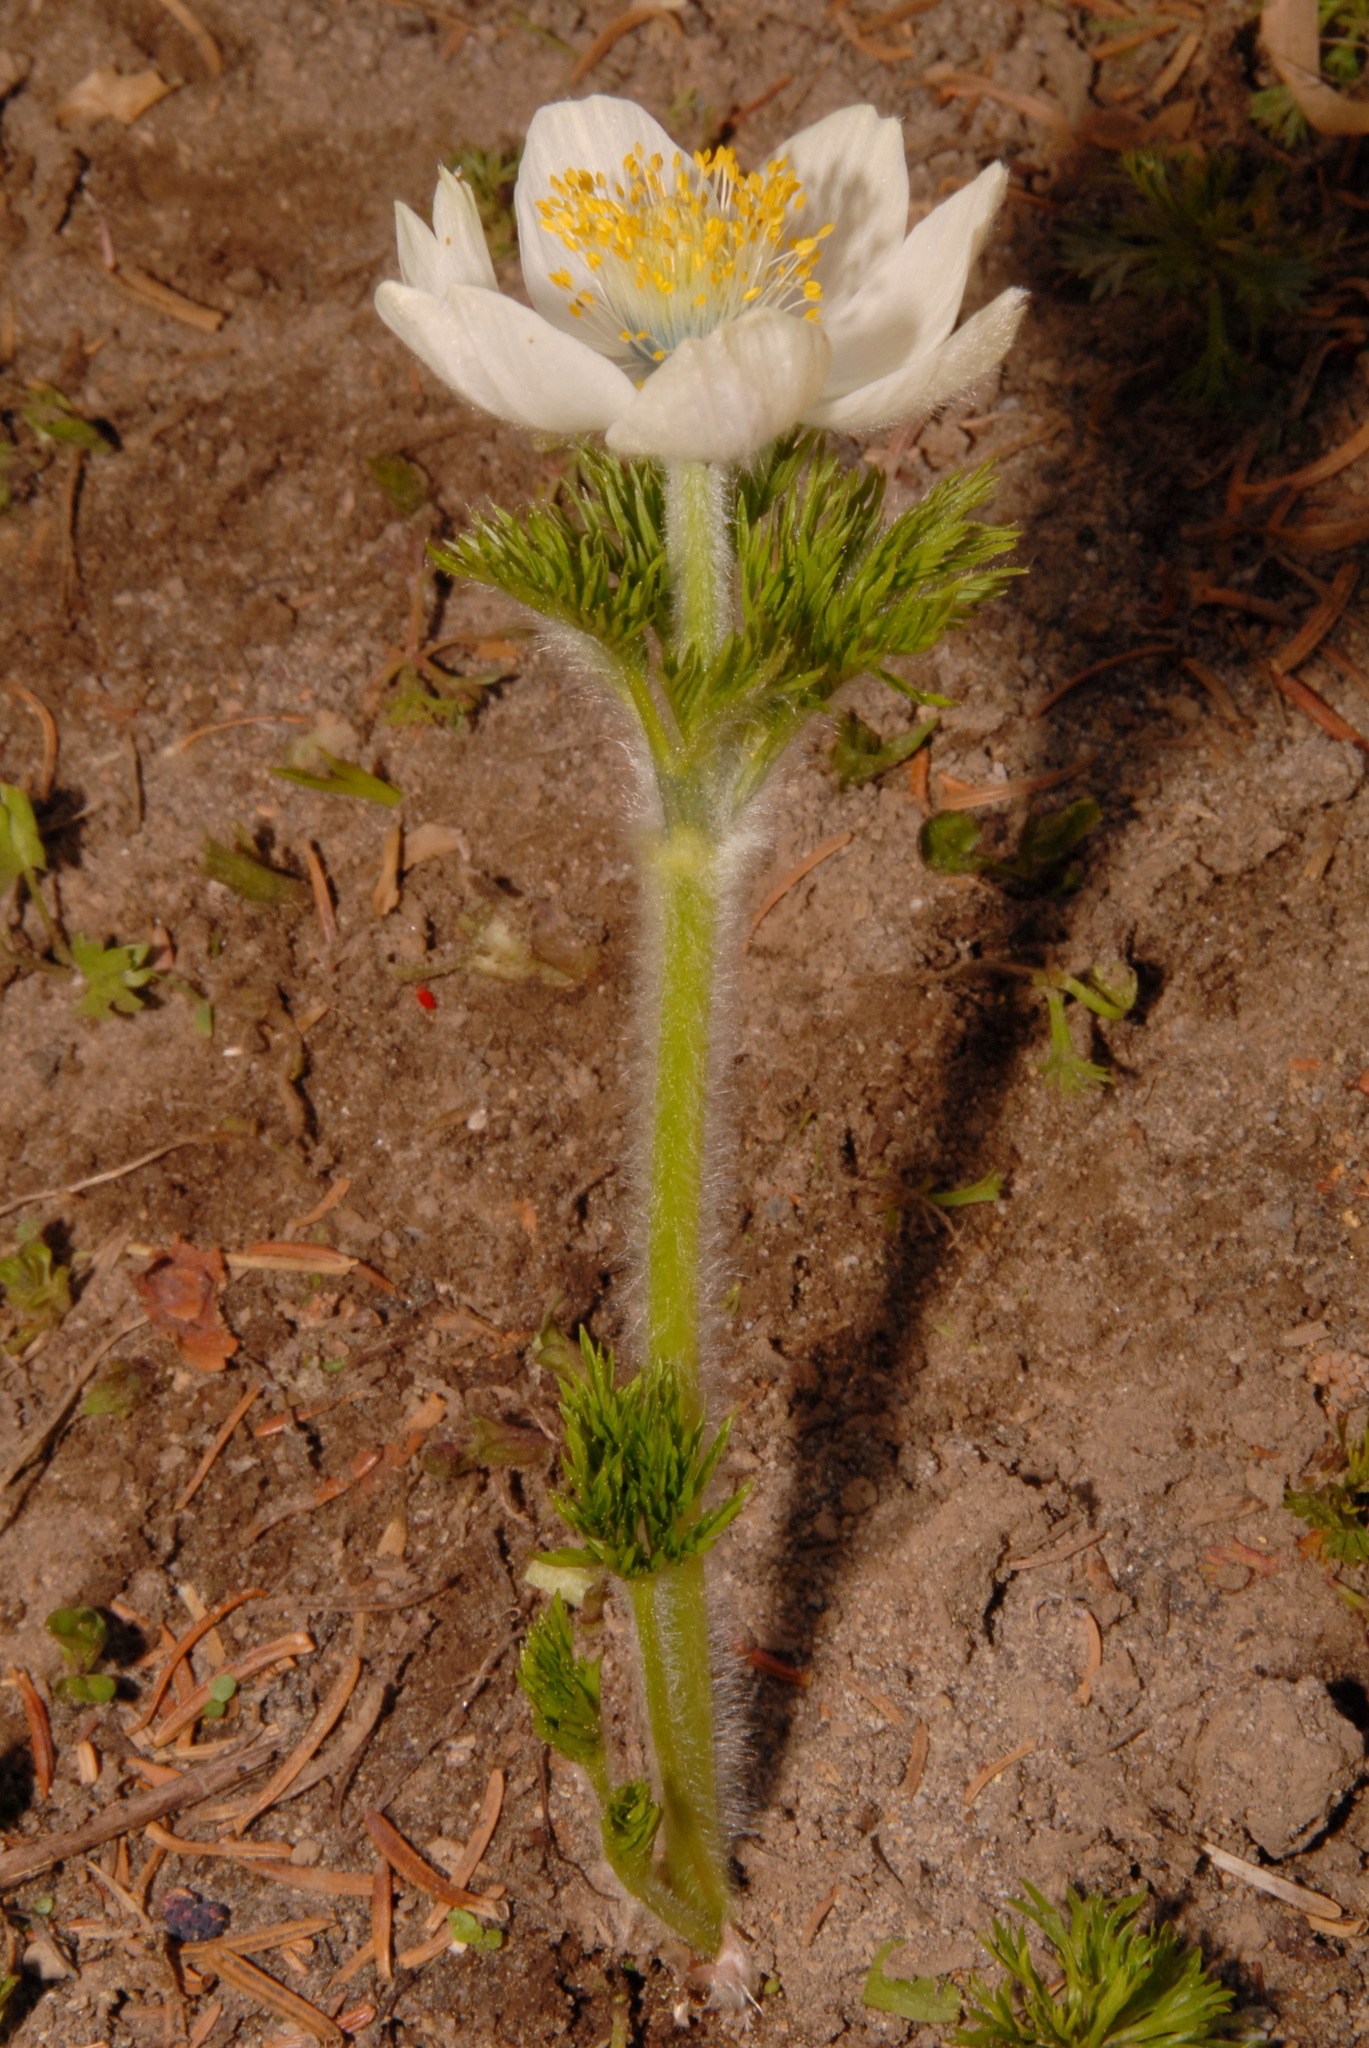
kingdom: Plantae
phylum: Tracheophyta
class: Magnoliopsida
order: Ranunculales
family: Ranunculaceae
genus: Pulsatilla
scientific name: Pulsatilla occidentalis
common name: Mountain pasqueflower
